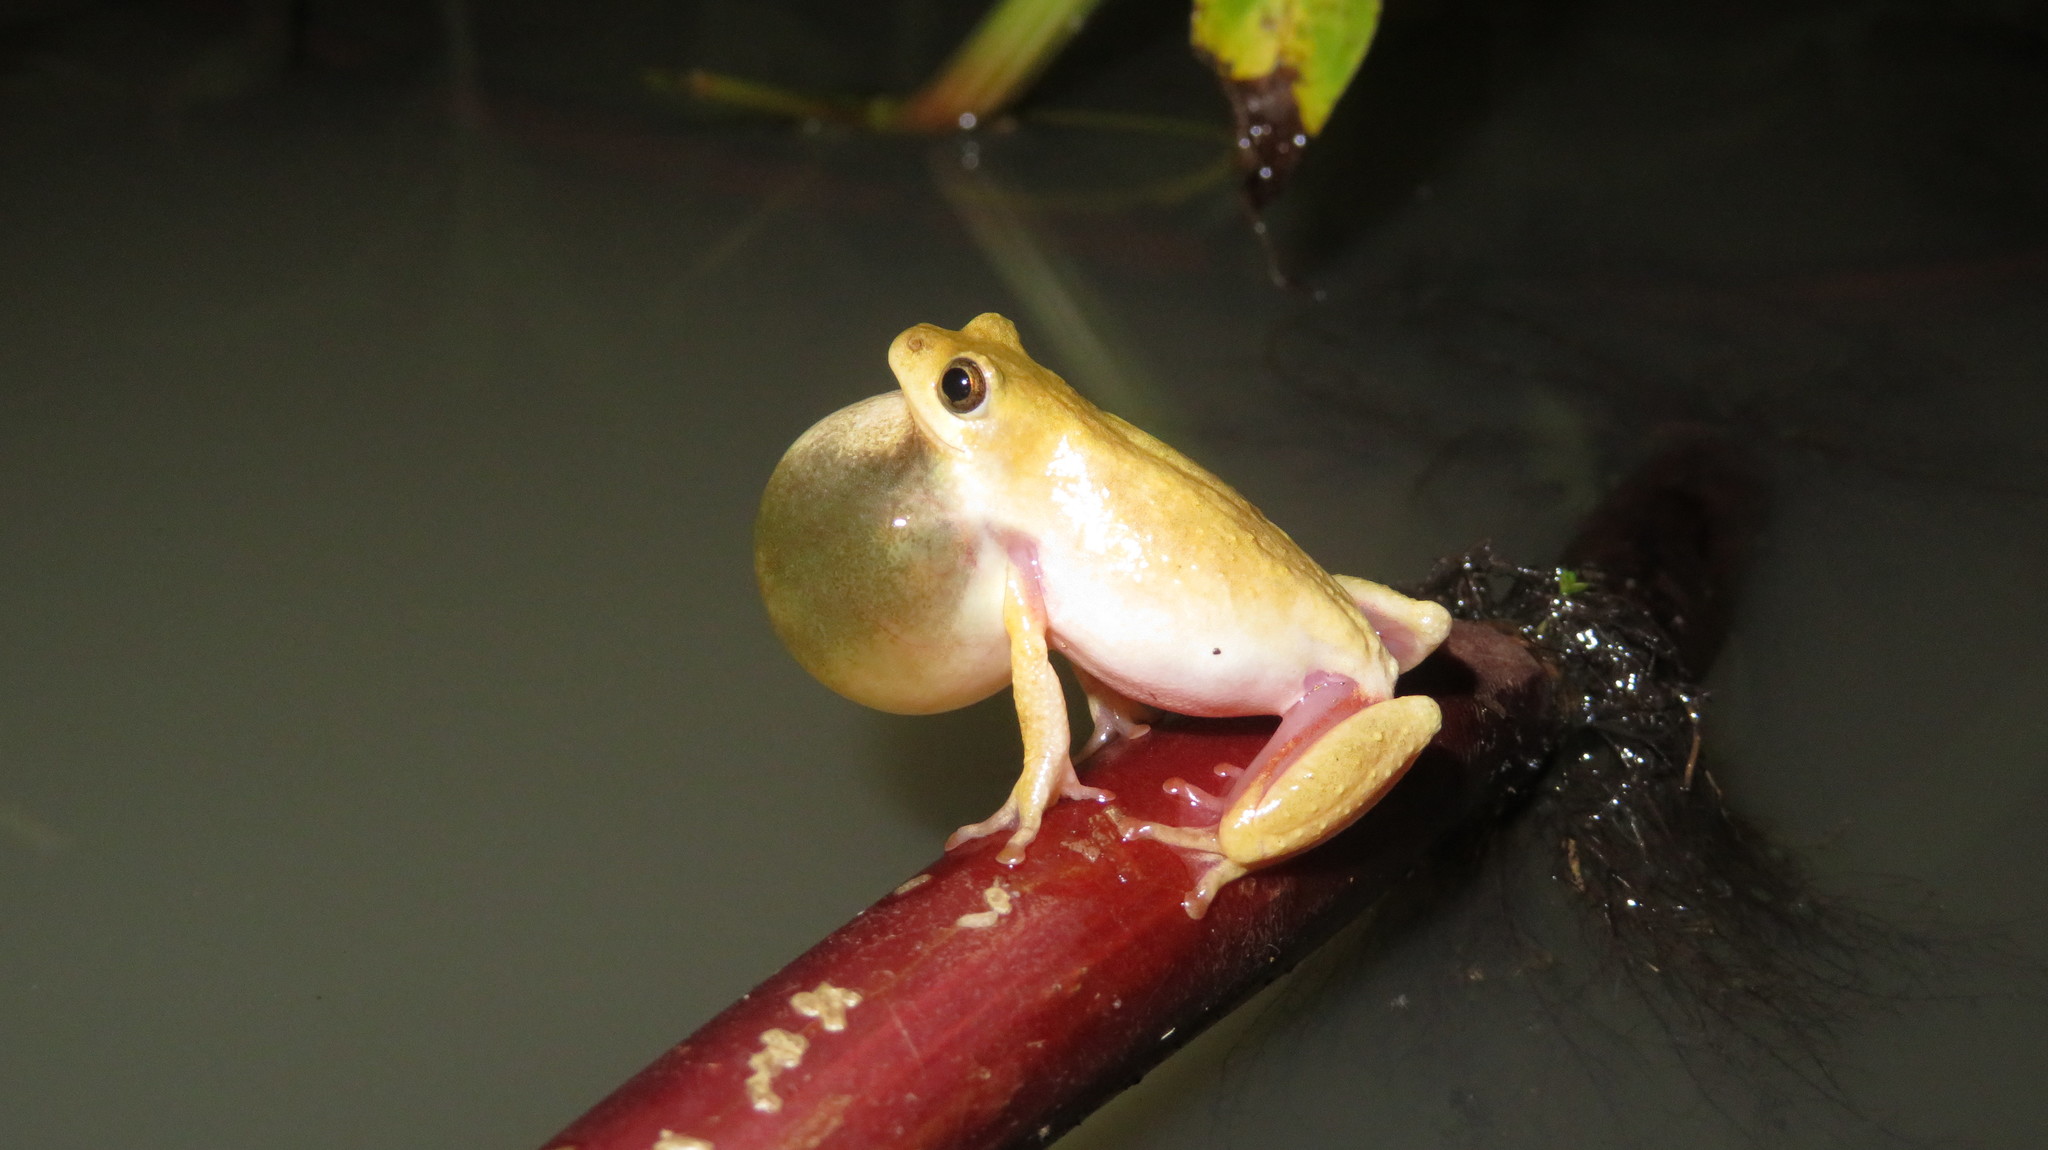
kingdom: Animalia
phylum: Chordata
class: Amphibia
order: Anura
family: Hyperoliidae
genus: Hyperolius
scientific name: Hyperolius glandicolor
